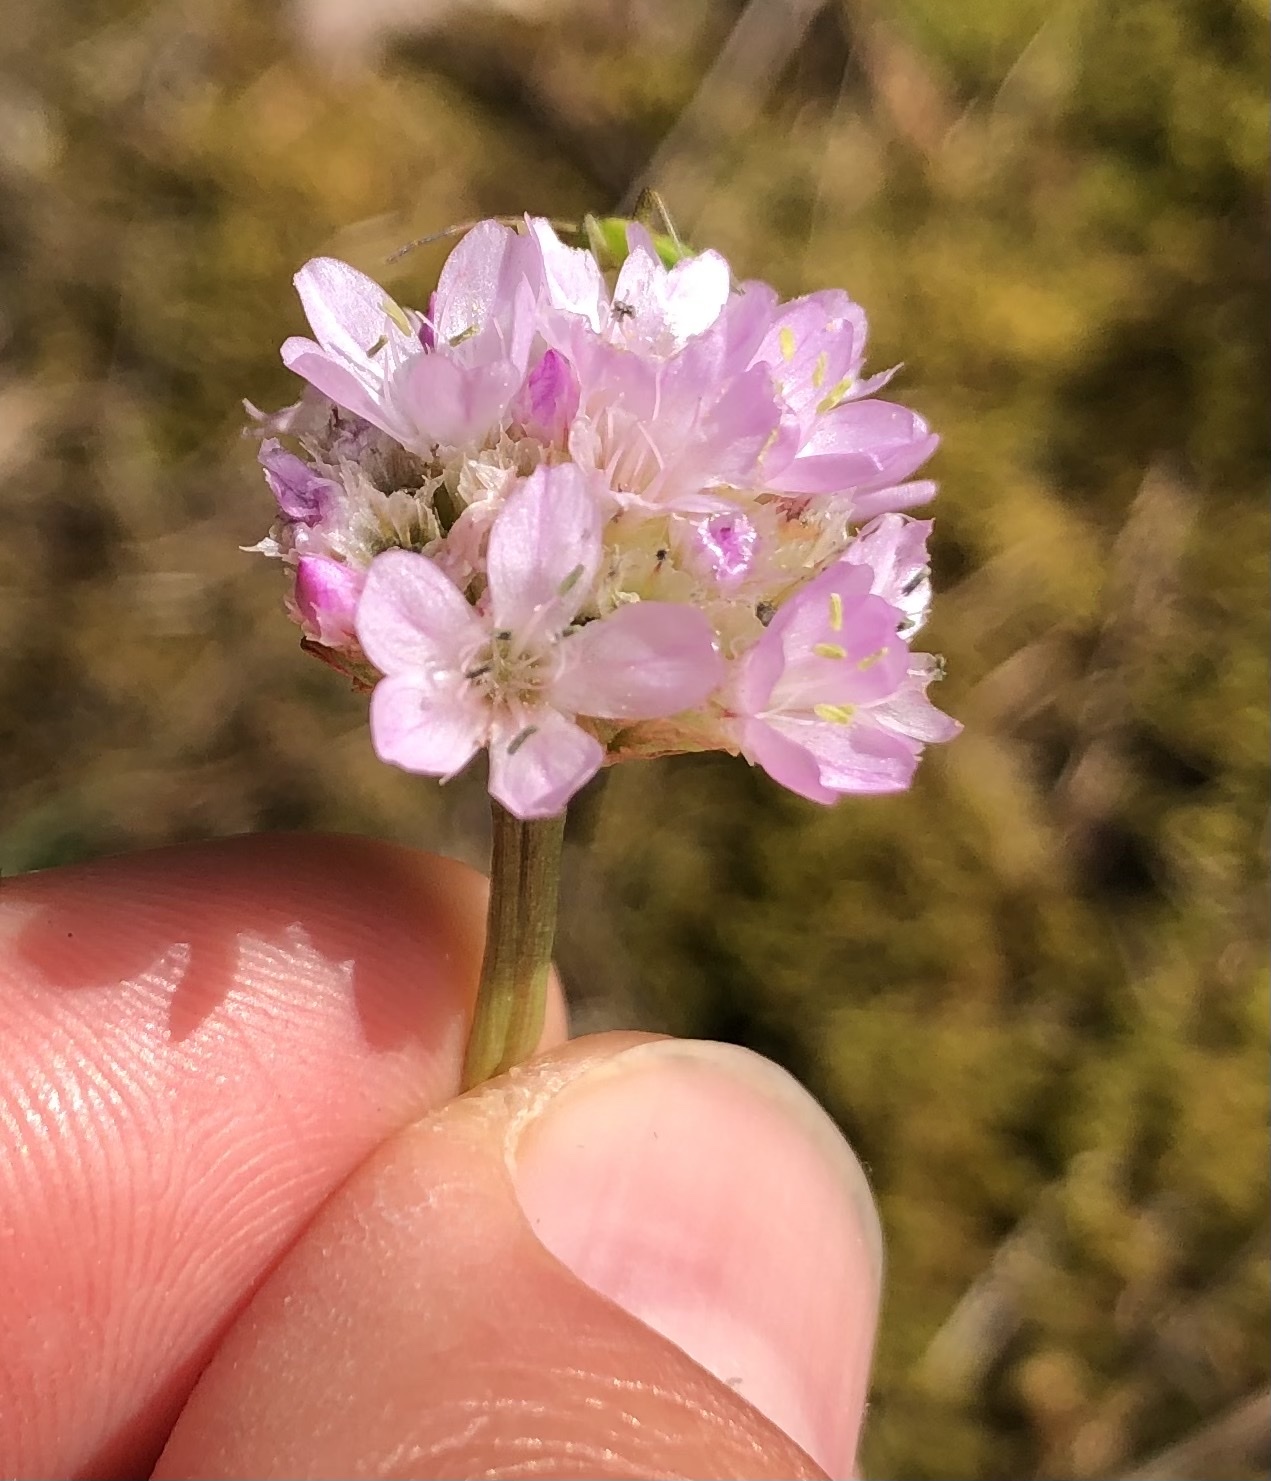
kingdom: Plantae
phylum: Tracheophyta
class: Magnoliopsida
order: Caryophyllales
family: Plumbaginaceae
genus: Armeria
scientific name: Armeria maritima
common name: Thrift
